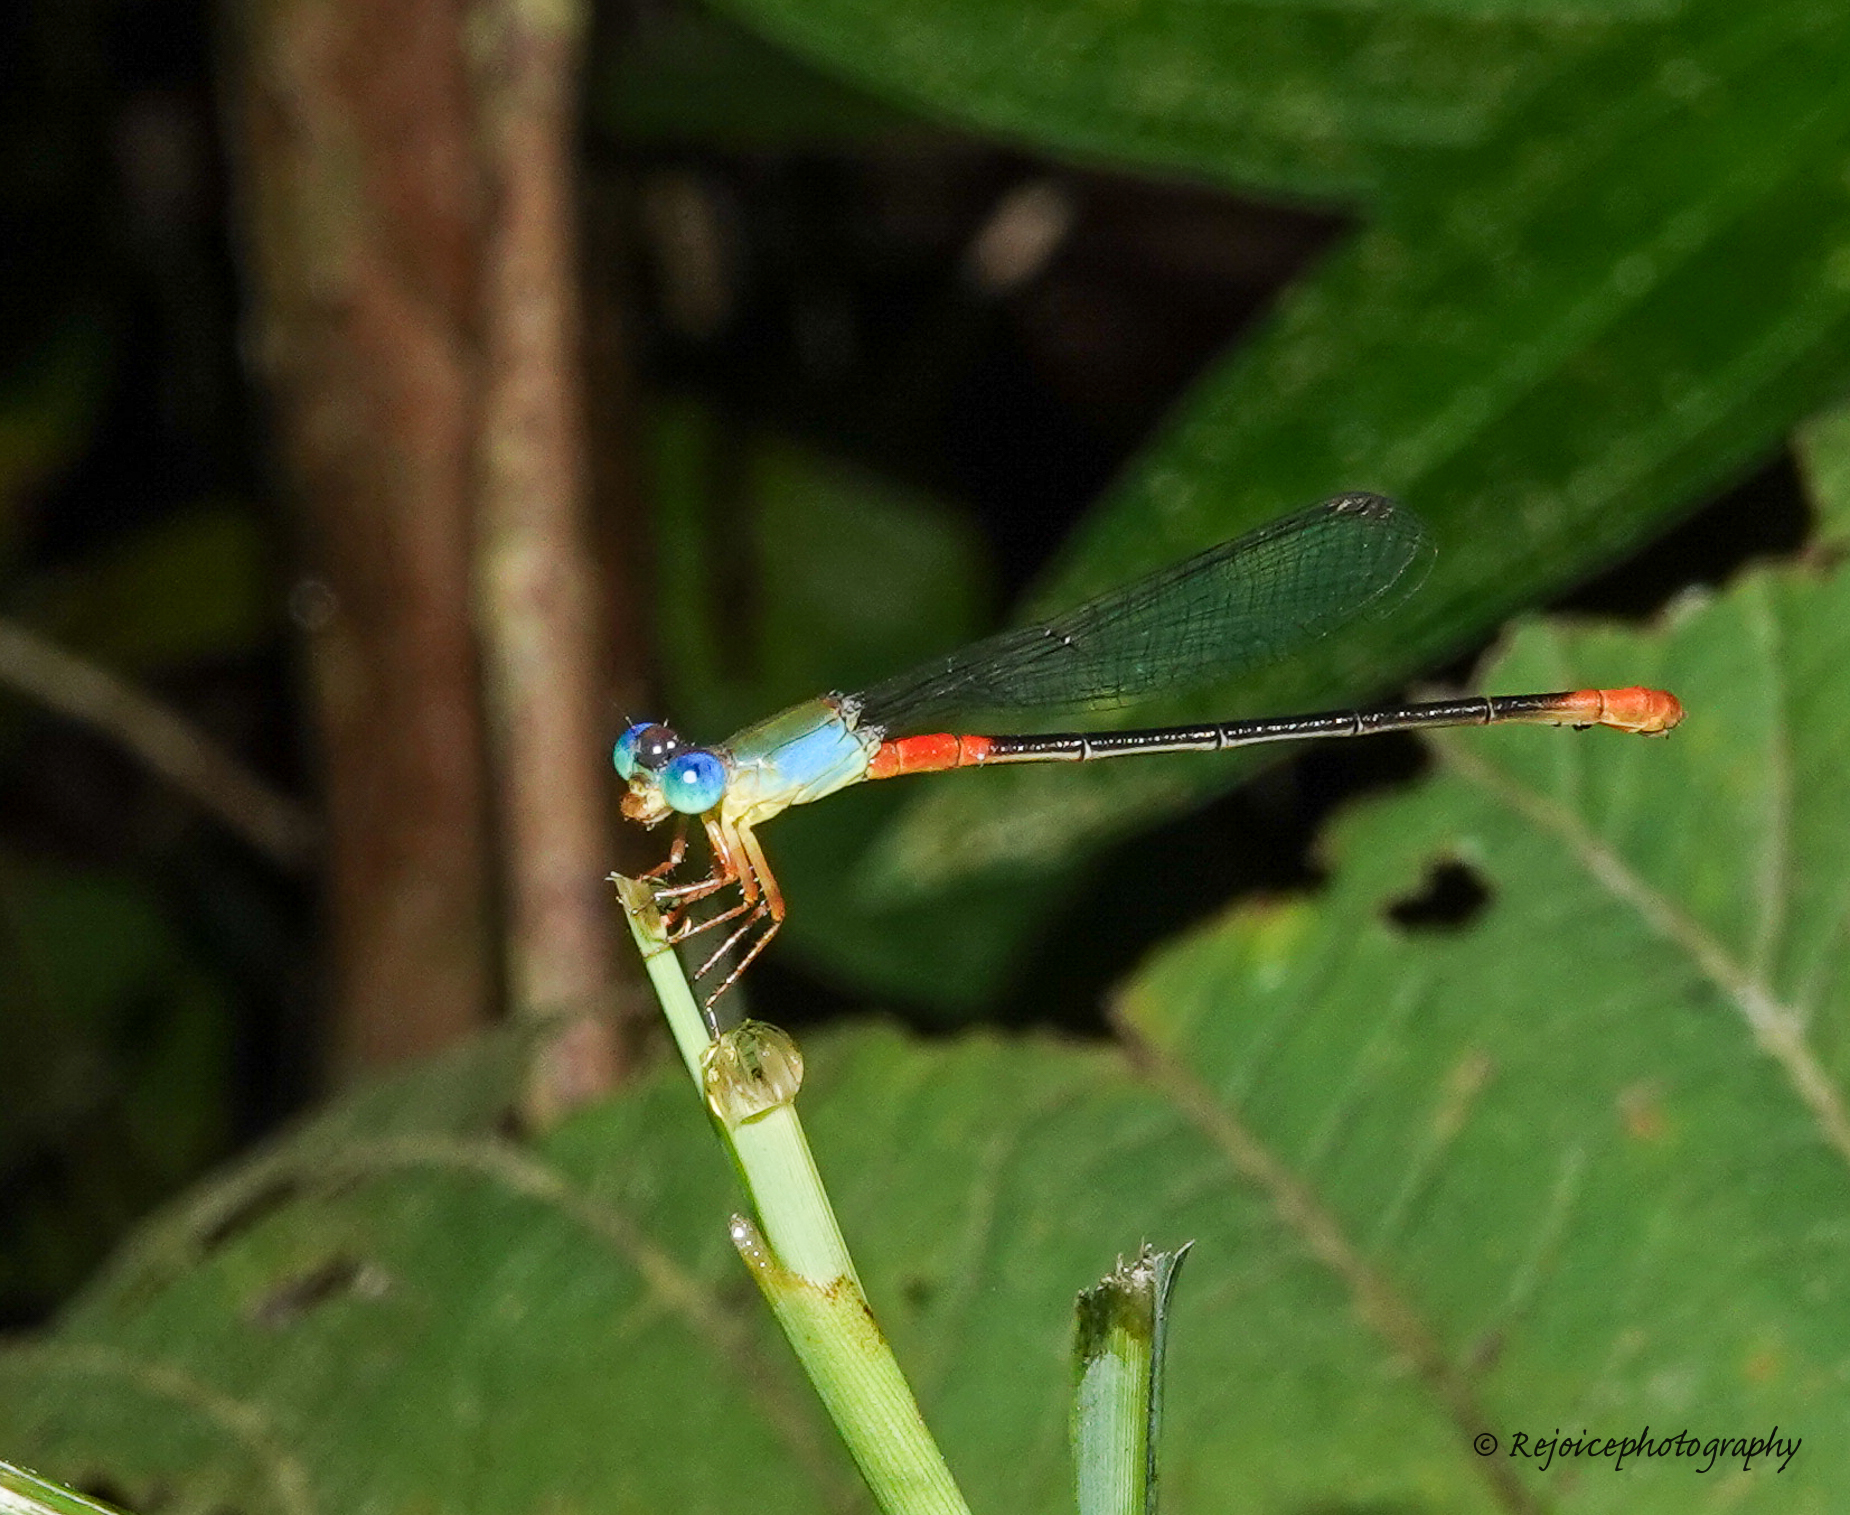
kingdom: Animalia
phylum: Arthropoda
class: Insecta
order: Odonata
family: Coenagrionidae
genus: Ceriagrion
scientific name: Ceriagrion cerinorubellum
